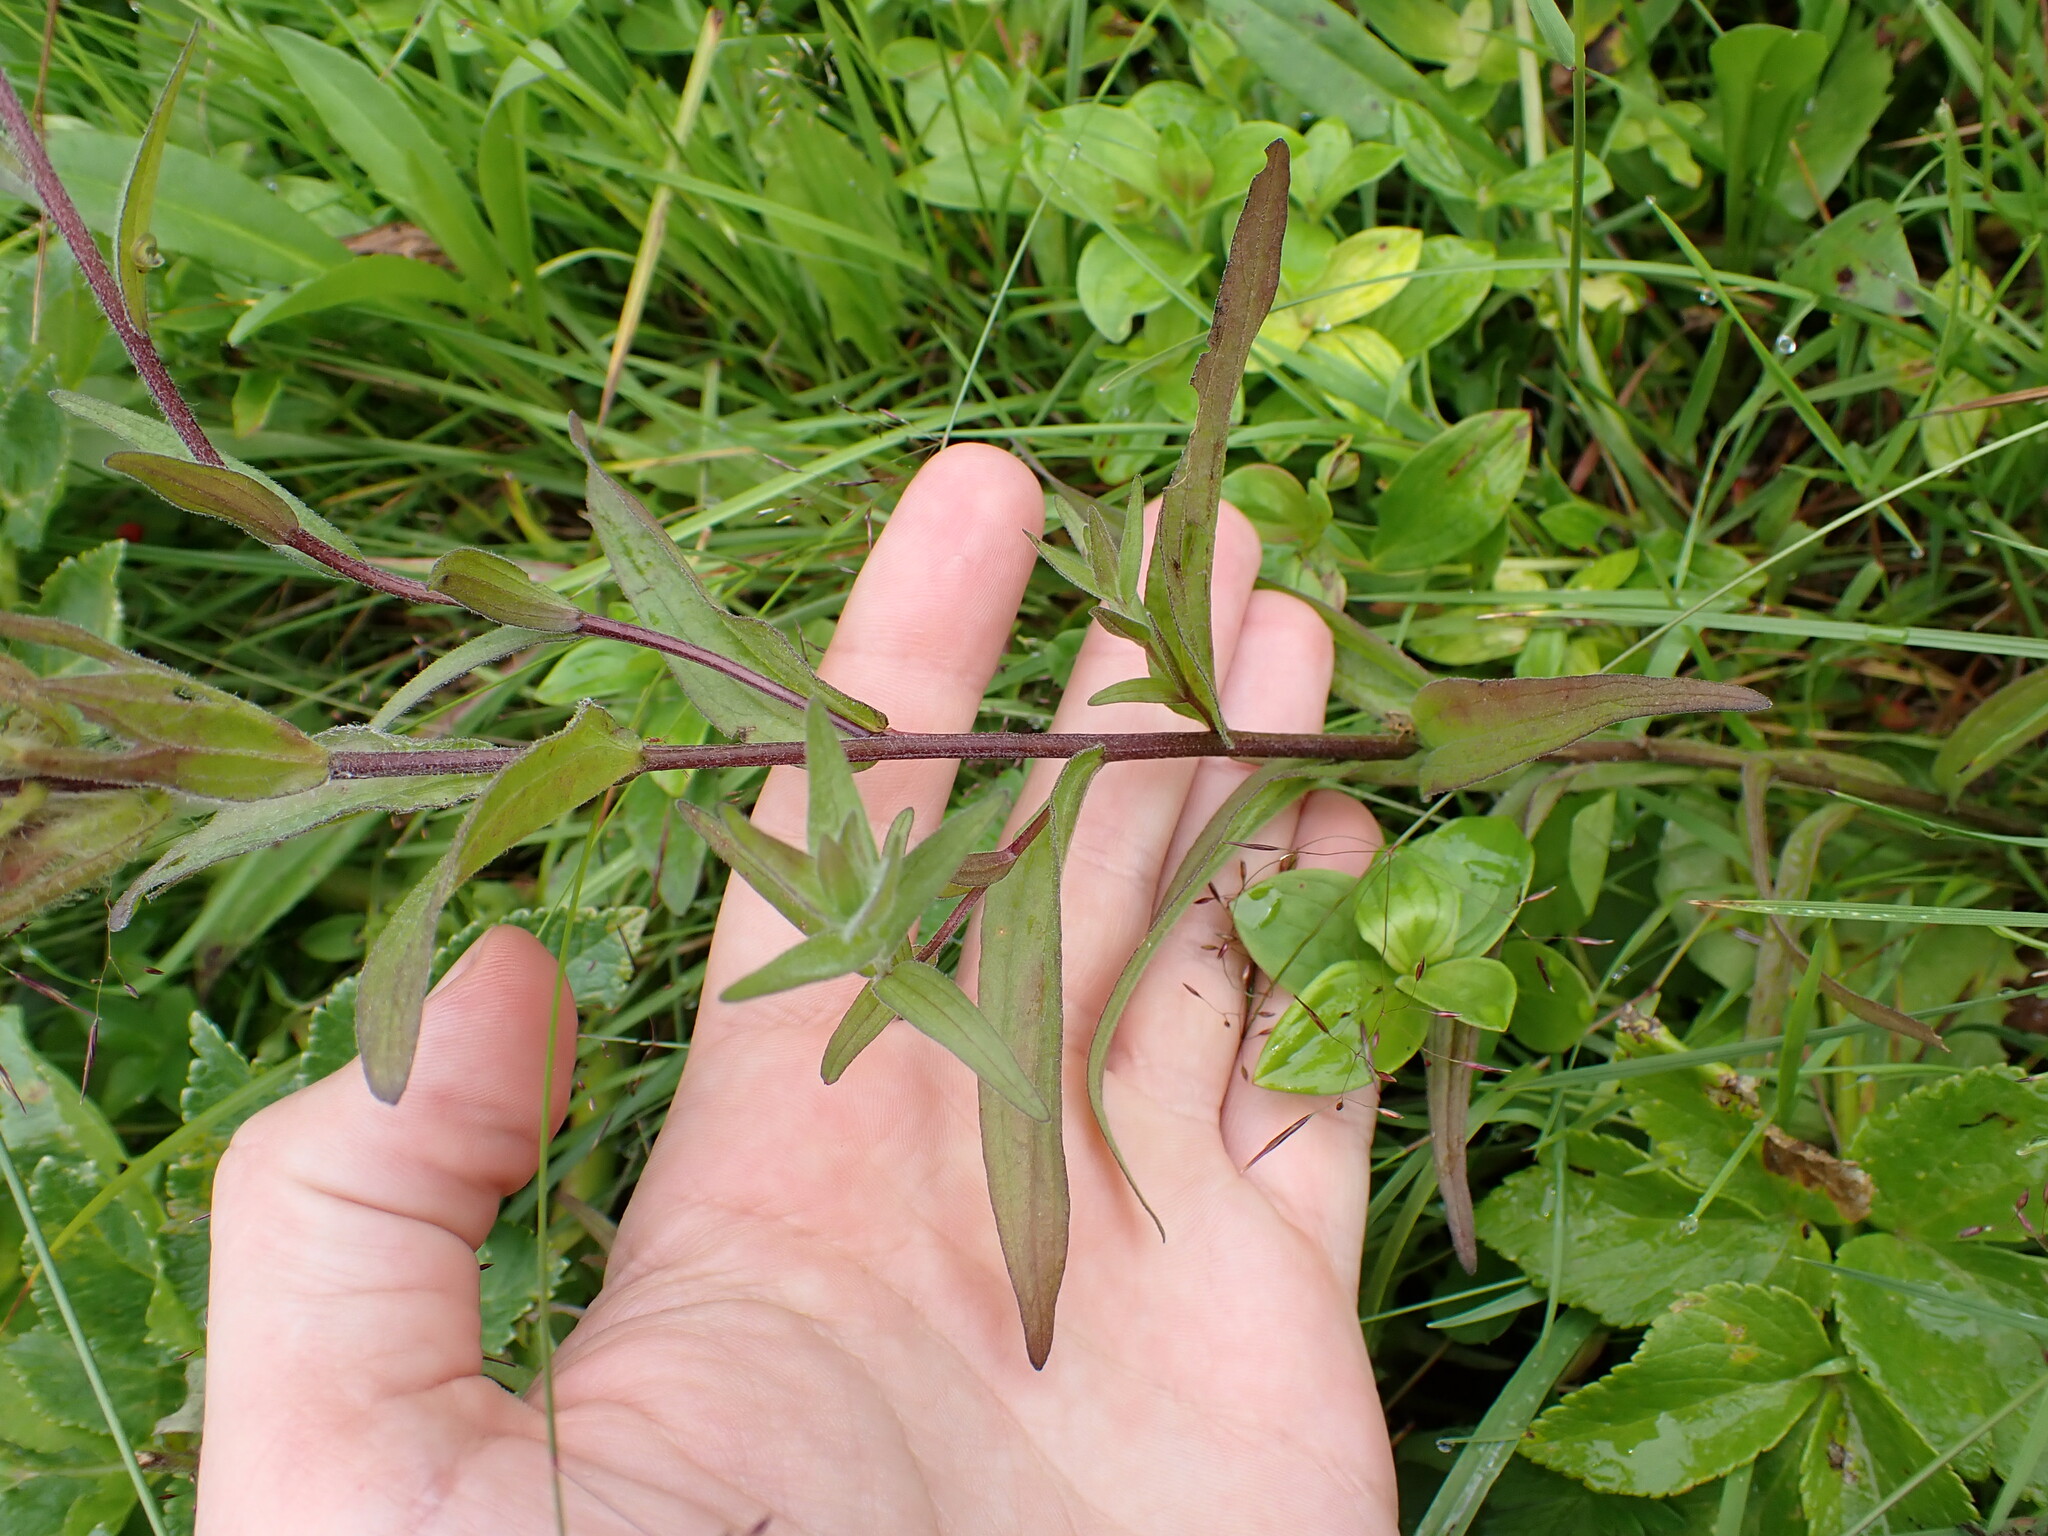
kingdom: Plantae
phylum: Tracheophyta
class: Magnoliopsida
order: Lamiales
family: Orobanchaceae
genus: Castilleja
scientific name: Castilleja unalaschcensis
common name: Unalaska paintbrush
